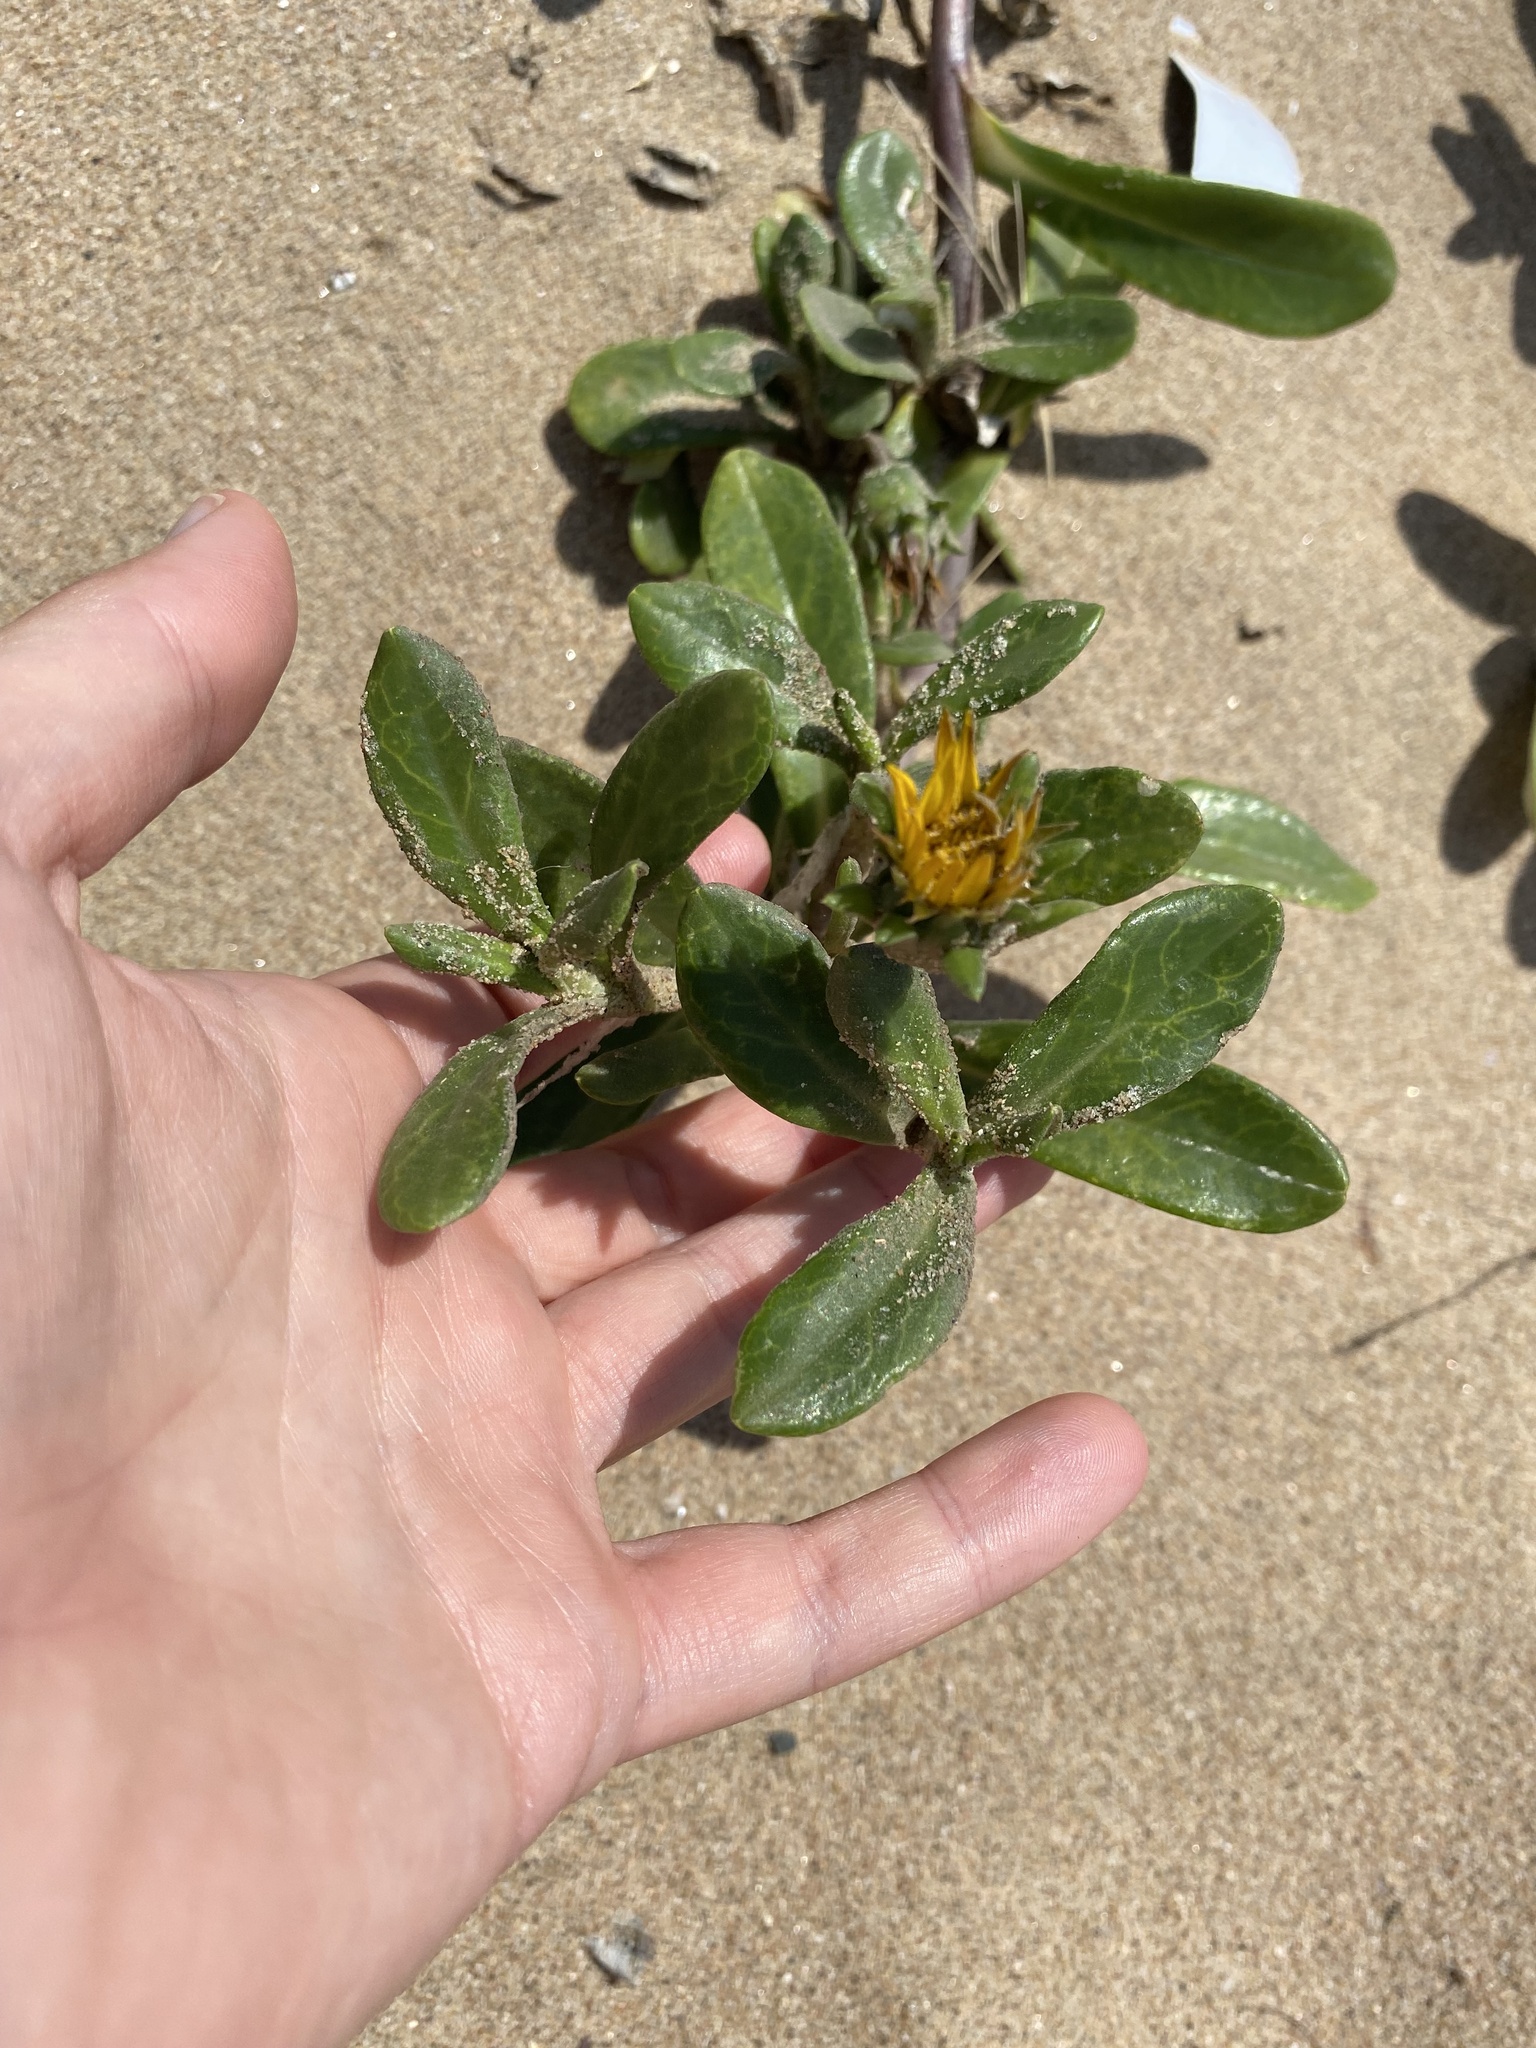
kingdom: Plantae
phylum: Tracheophyta
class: Magnoliopsida
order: Asterales
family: Asteraceae
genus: Gazania
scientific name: Gazania rigens
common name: Treasureflower
